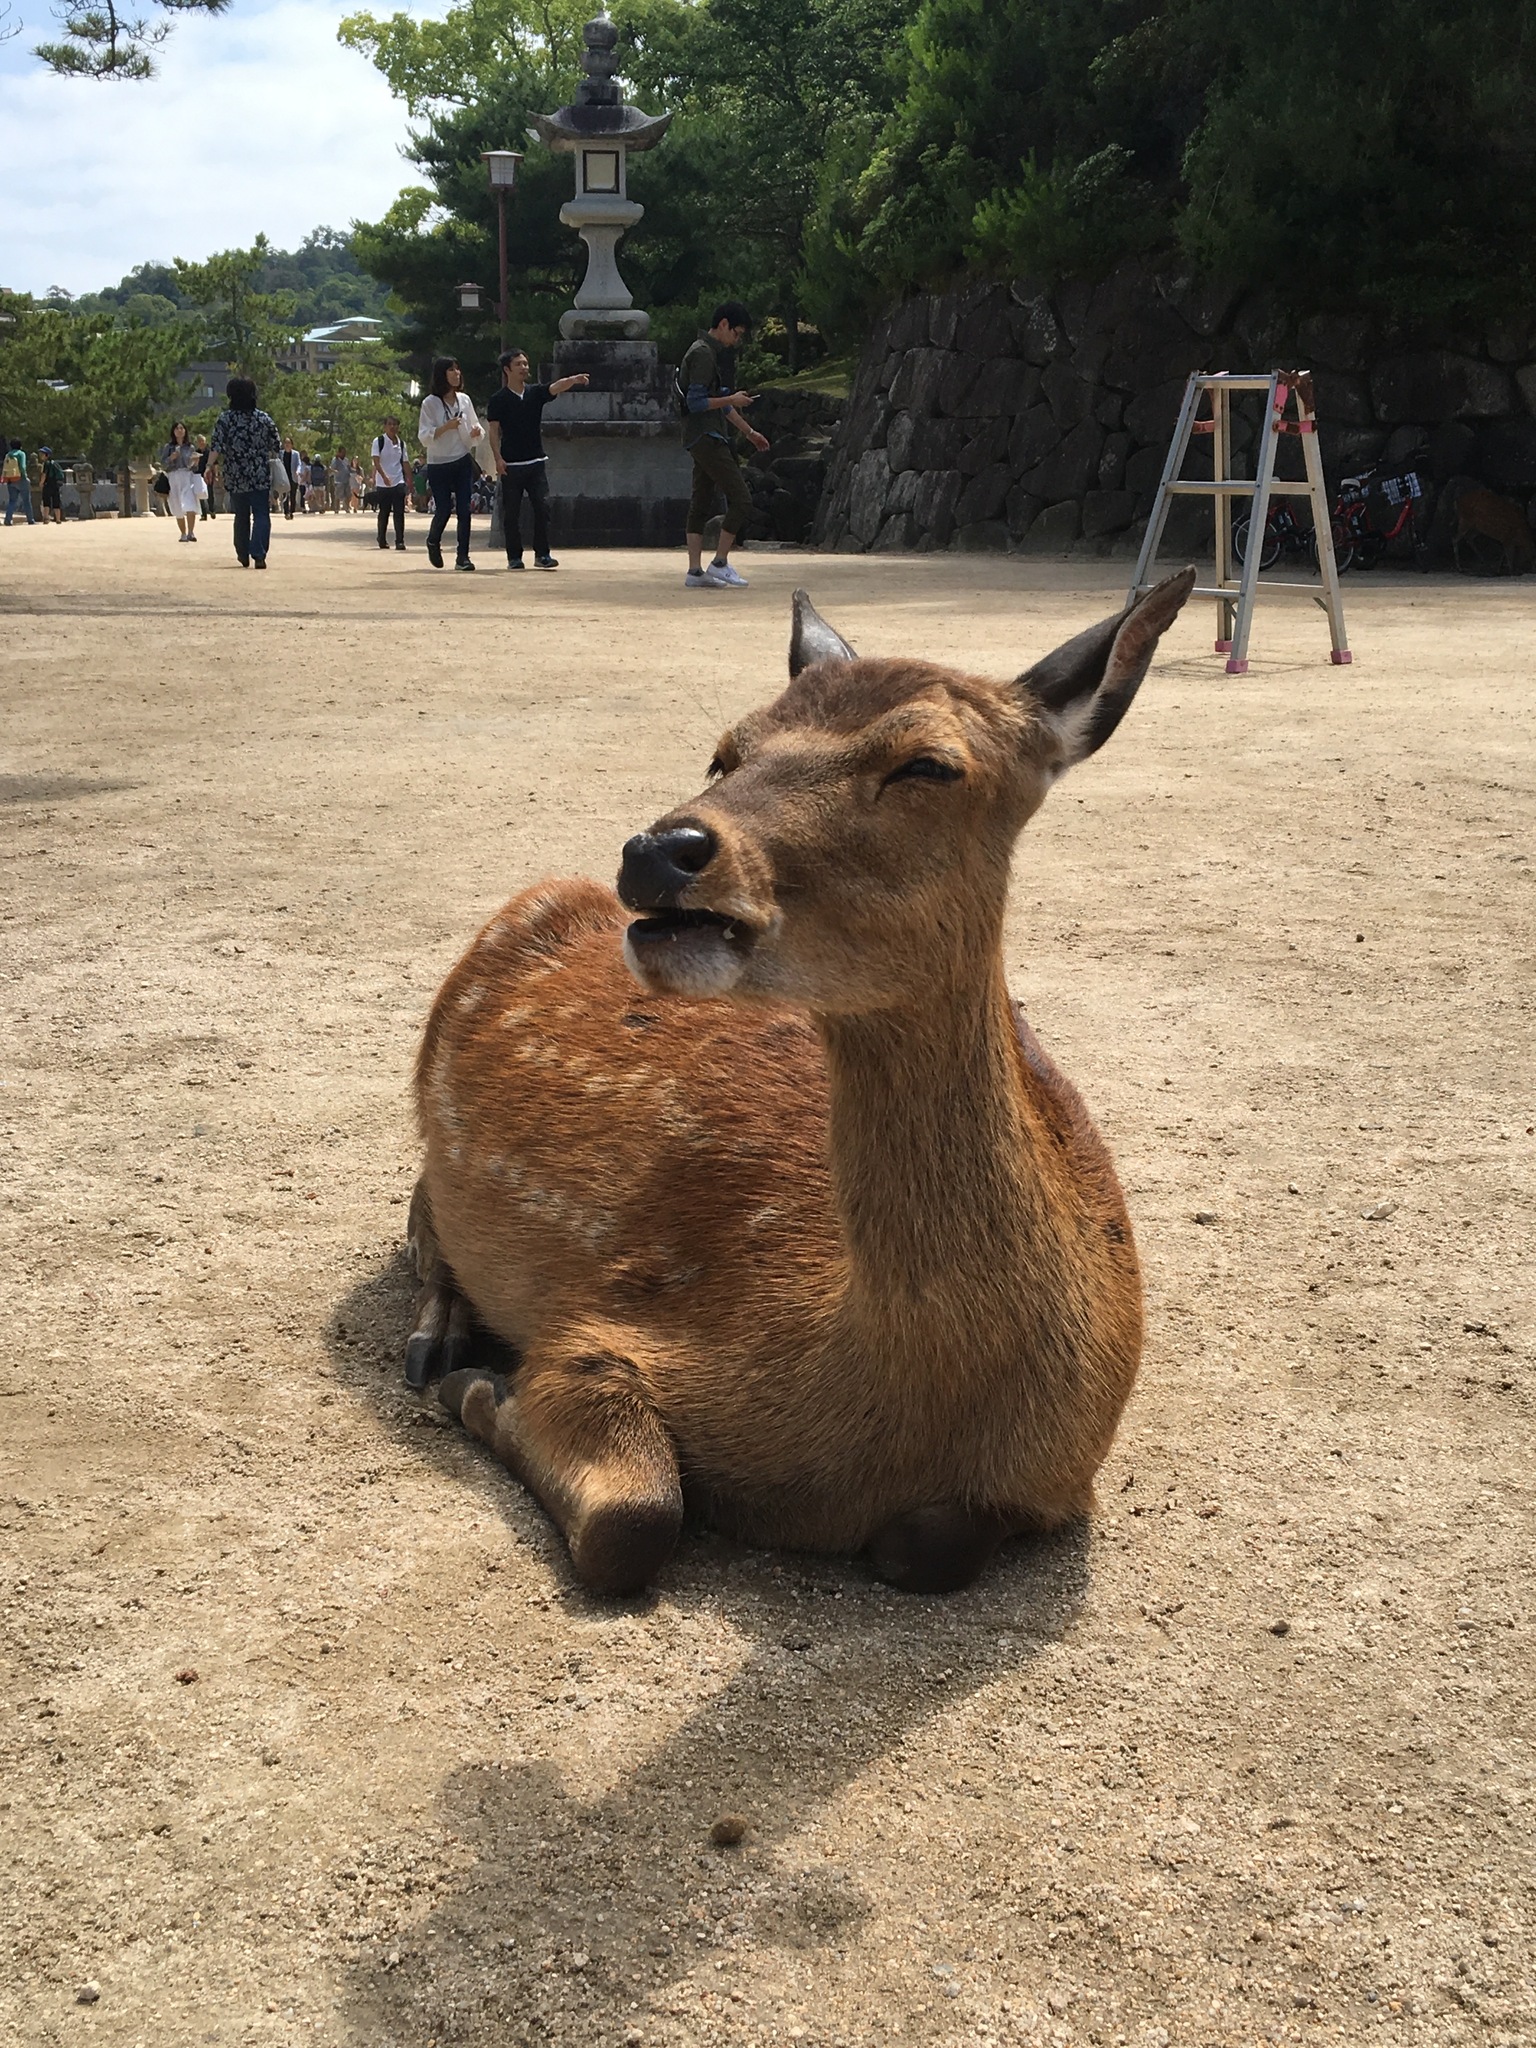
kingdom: Animalia
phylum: Chordata
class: Mammalia
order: Artiodactyla
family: Cervidae
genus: Cervus
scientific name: Cervus nippon
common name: Sika deer
